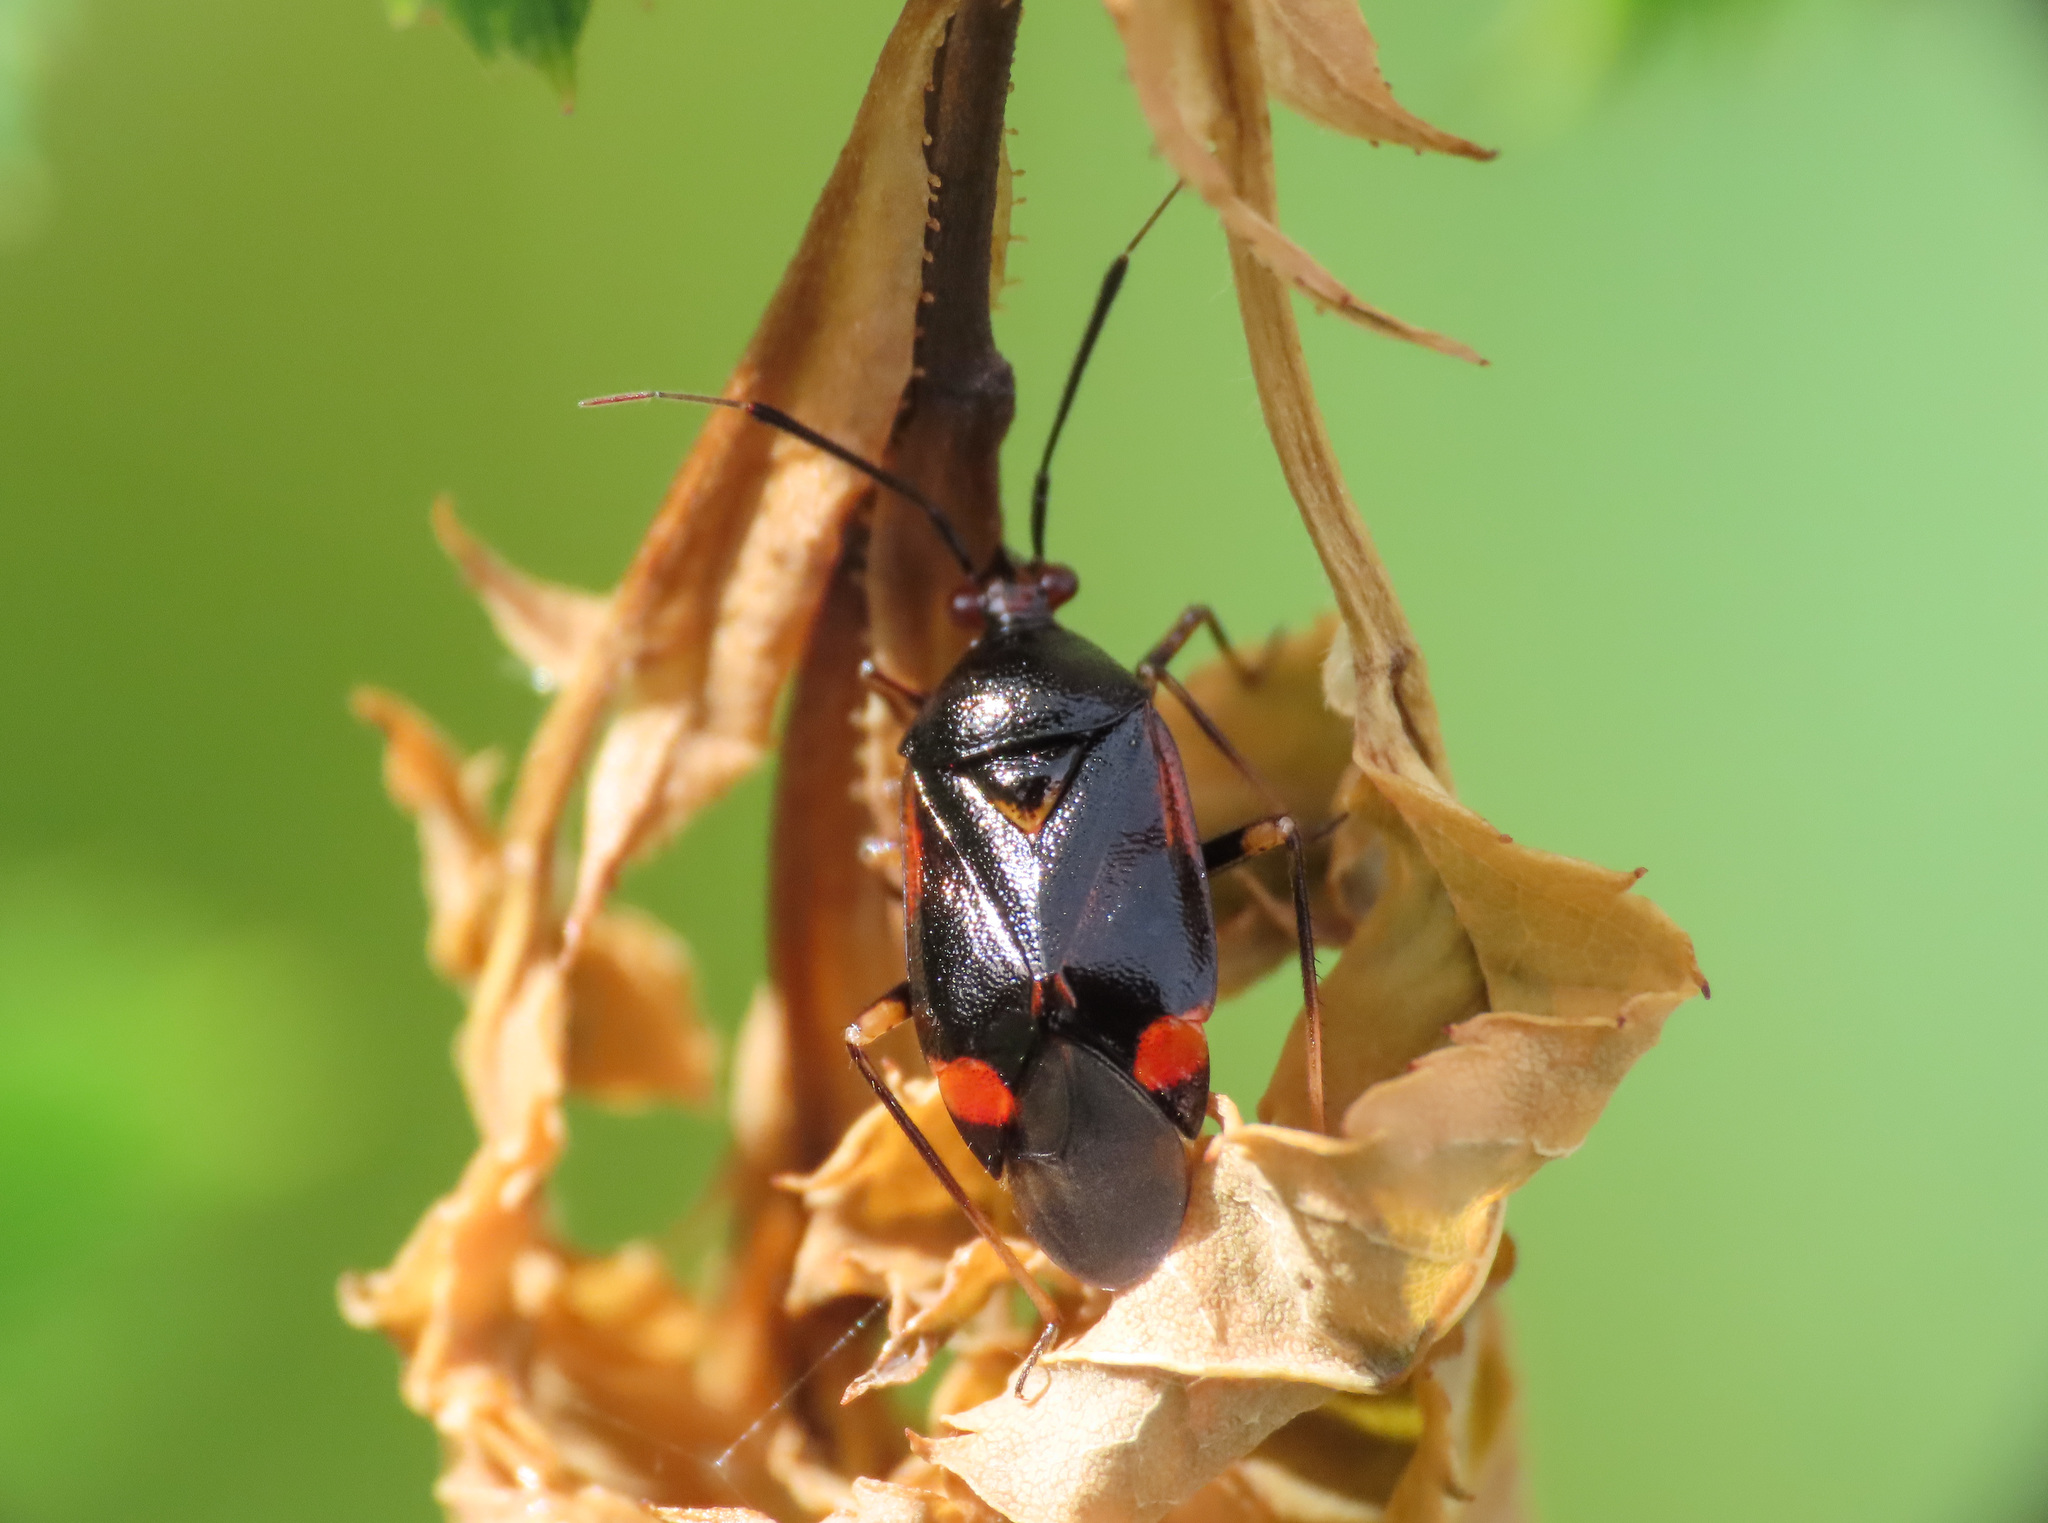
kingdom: Animalia
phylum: Arthropoda
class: Insecta
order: Hemiptera
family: Miridae
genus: Deraeocoris
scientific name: Deraeocoris ruber
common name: Plant bug
